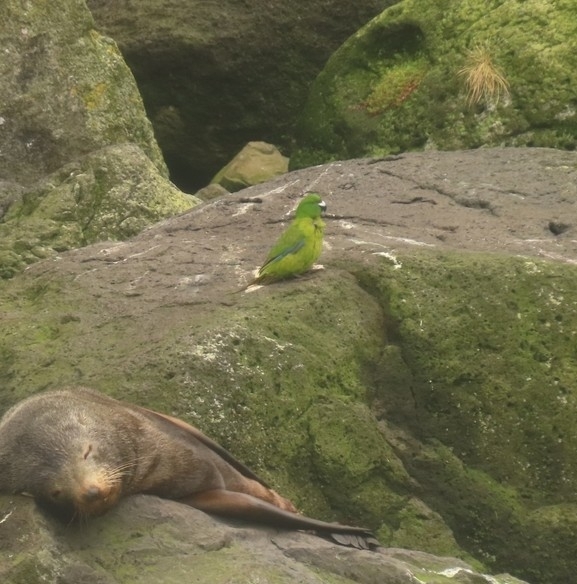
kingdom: Animalia
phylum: Chordata
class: Aves
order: Psittaciformes
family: Psittacidae
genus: Cyanoramphus
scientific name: Cyanoramphus unicolor
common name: Antipodes parakeet
